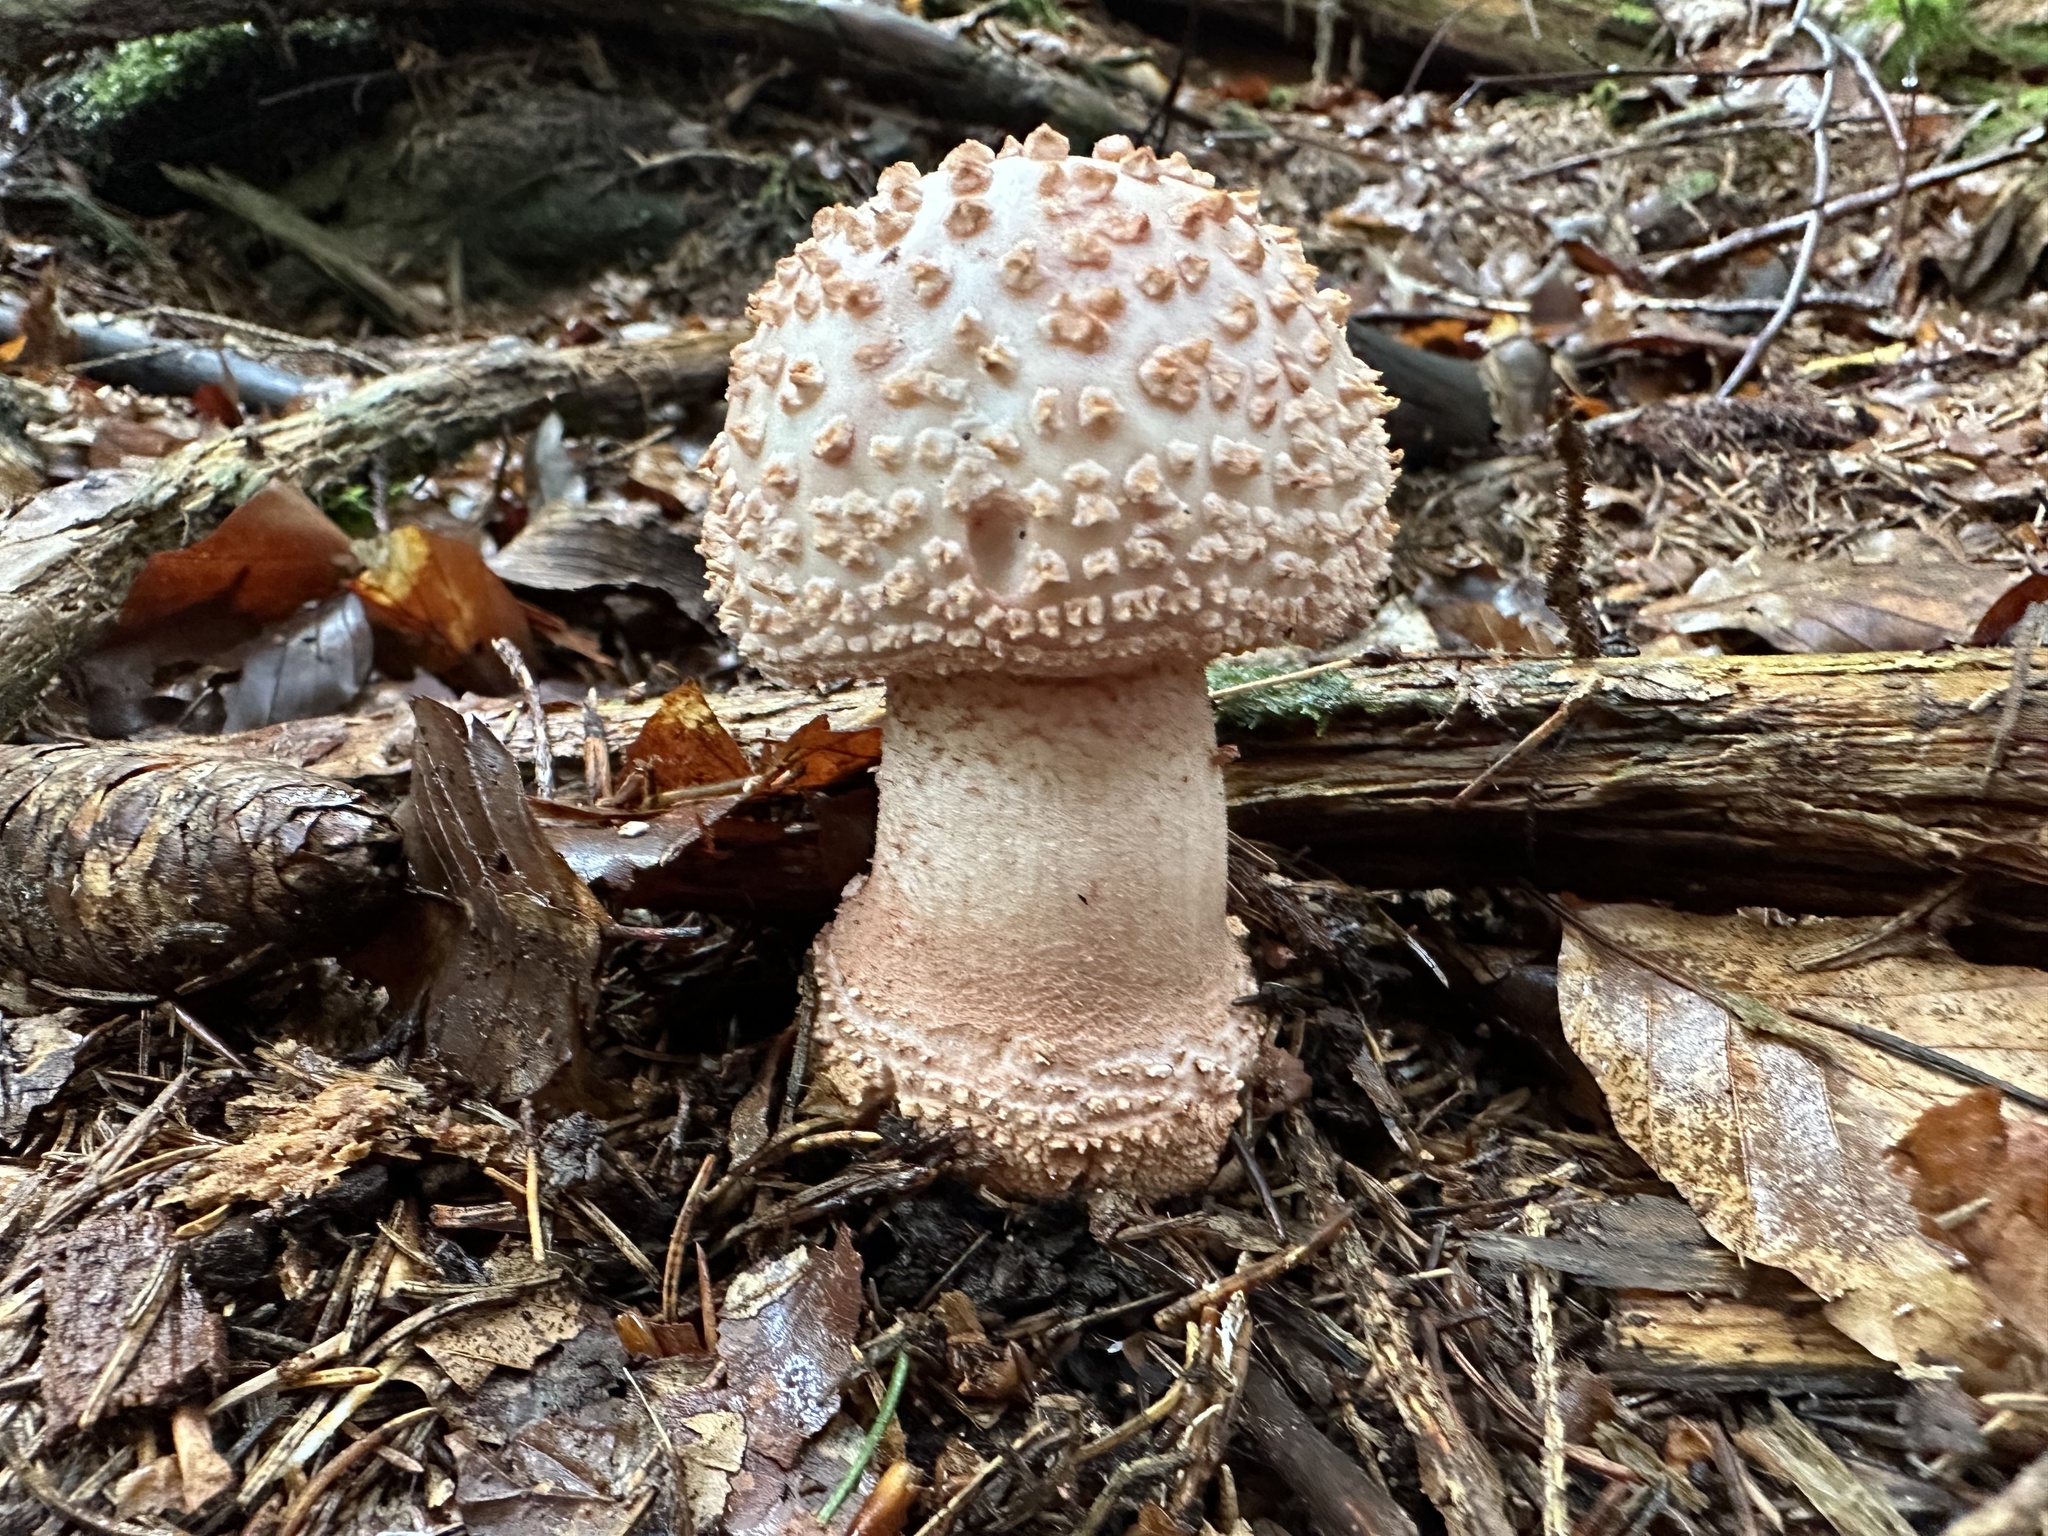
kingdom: Fungi
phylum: Basidiomycota
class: Agaricomycetes
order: Agaricales
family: Amanitaceae
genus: Amanita
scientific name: Amanita rubescens
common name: Blusher
